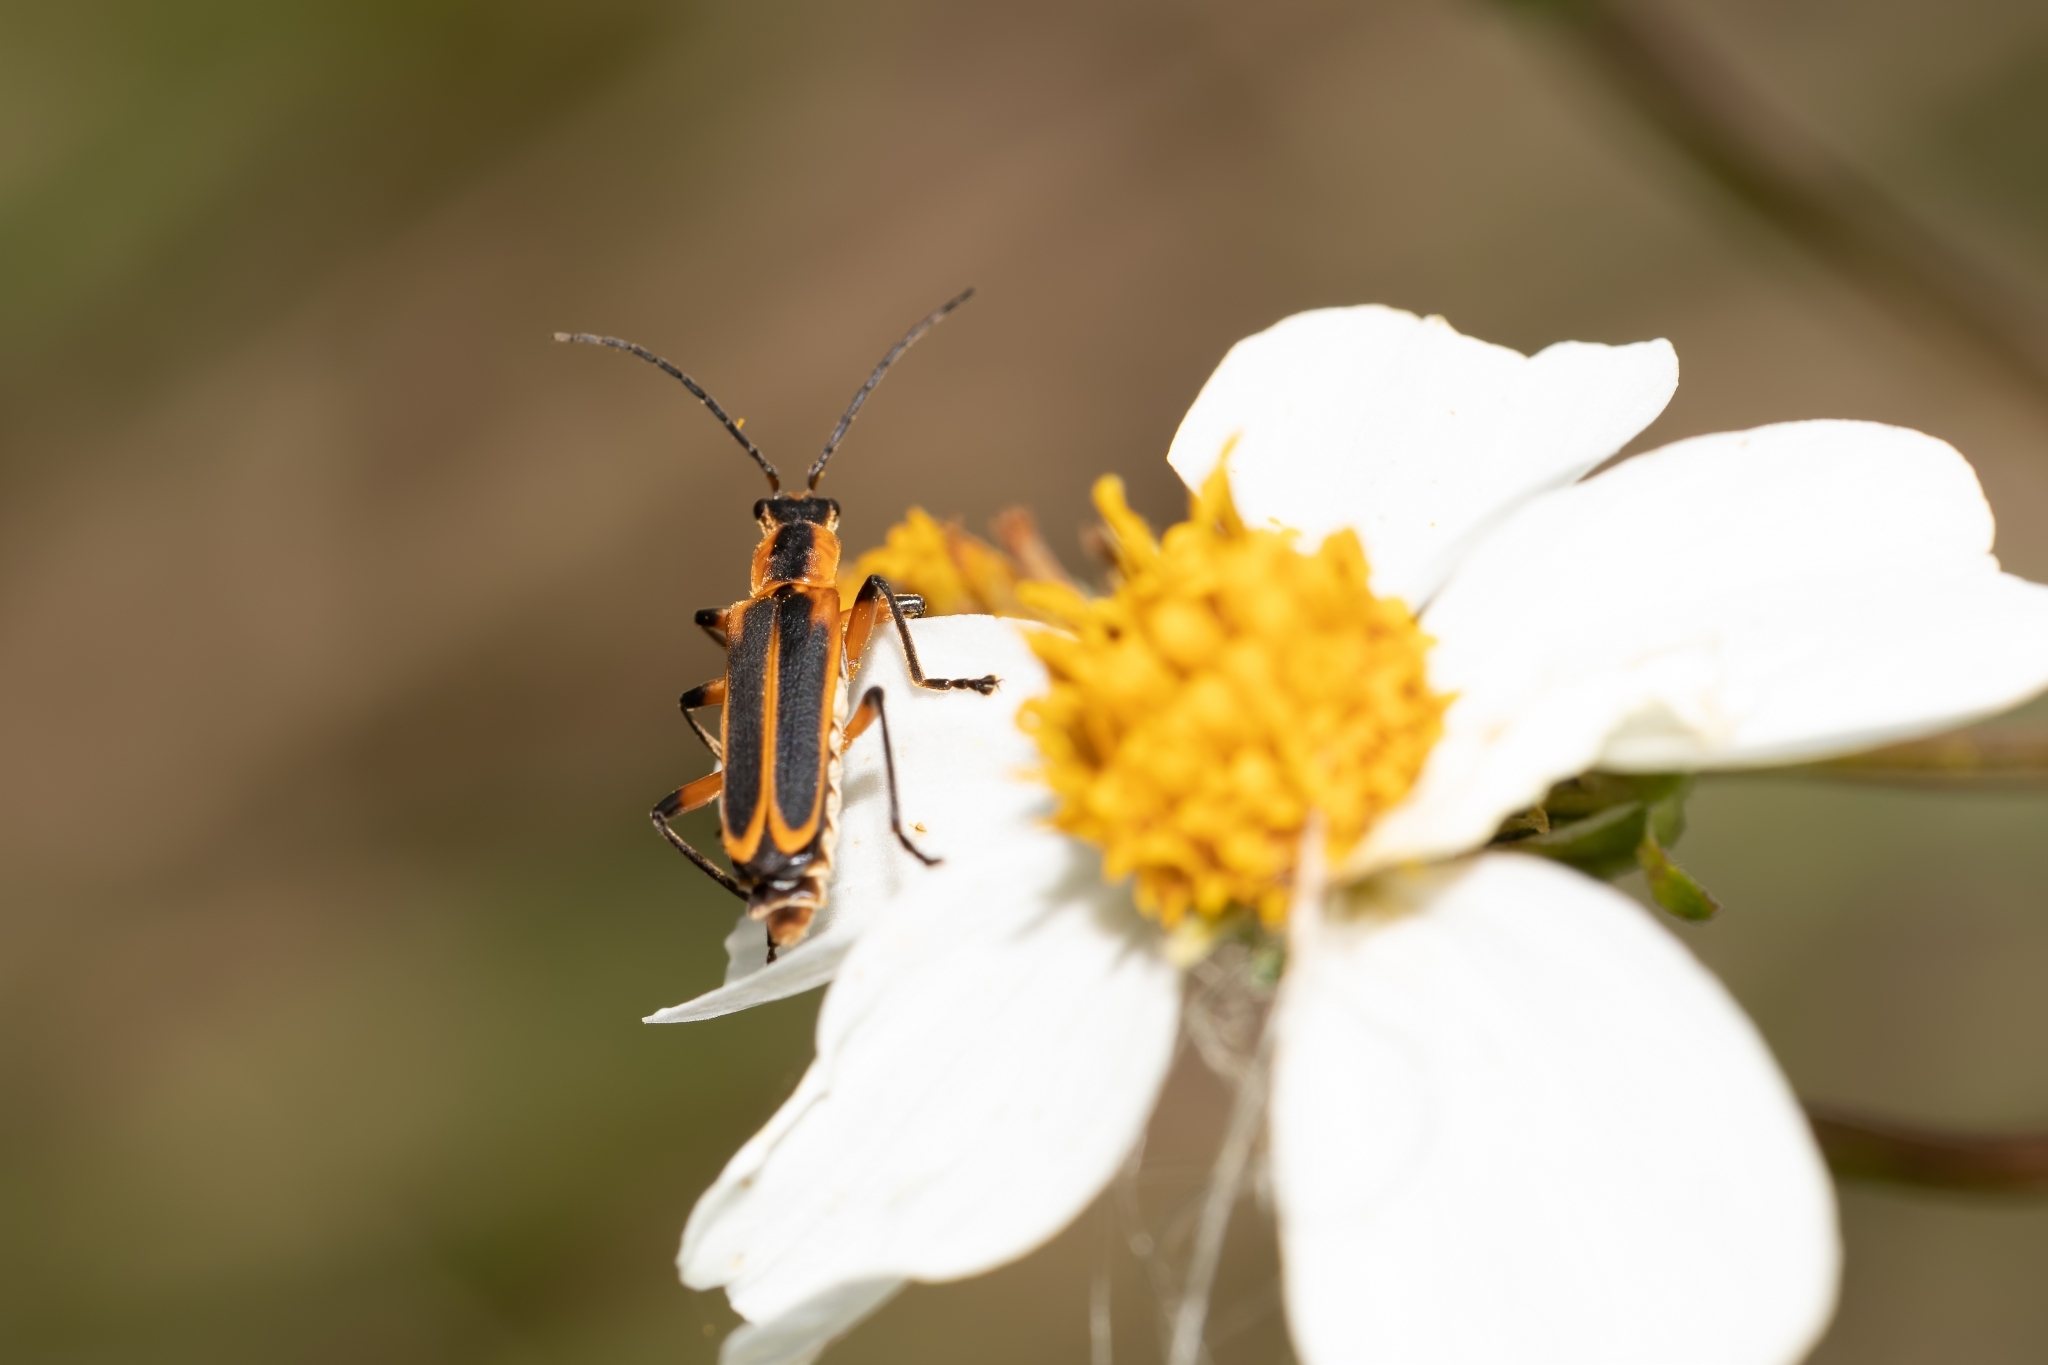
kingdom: Animalia
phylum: Arthropoda
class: Insecta
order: Coleoptera
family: Cantharidae
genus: Chauliognathus
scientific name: Chauliognathus marginatus
